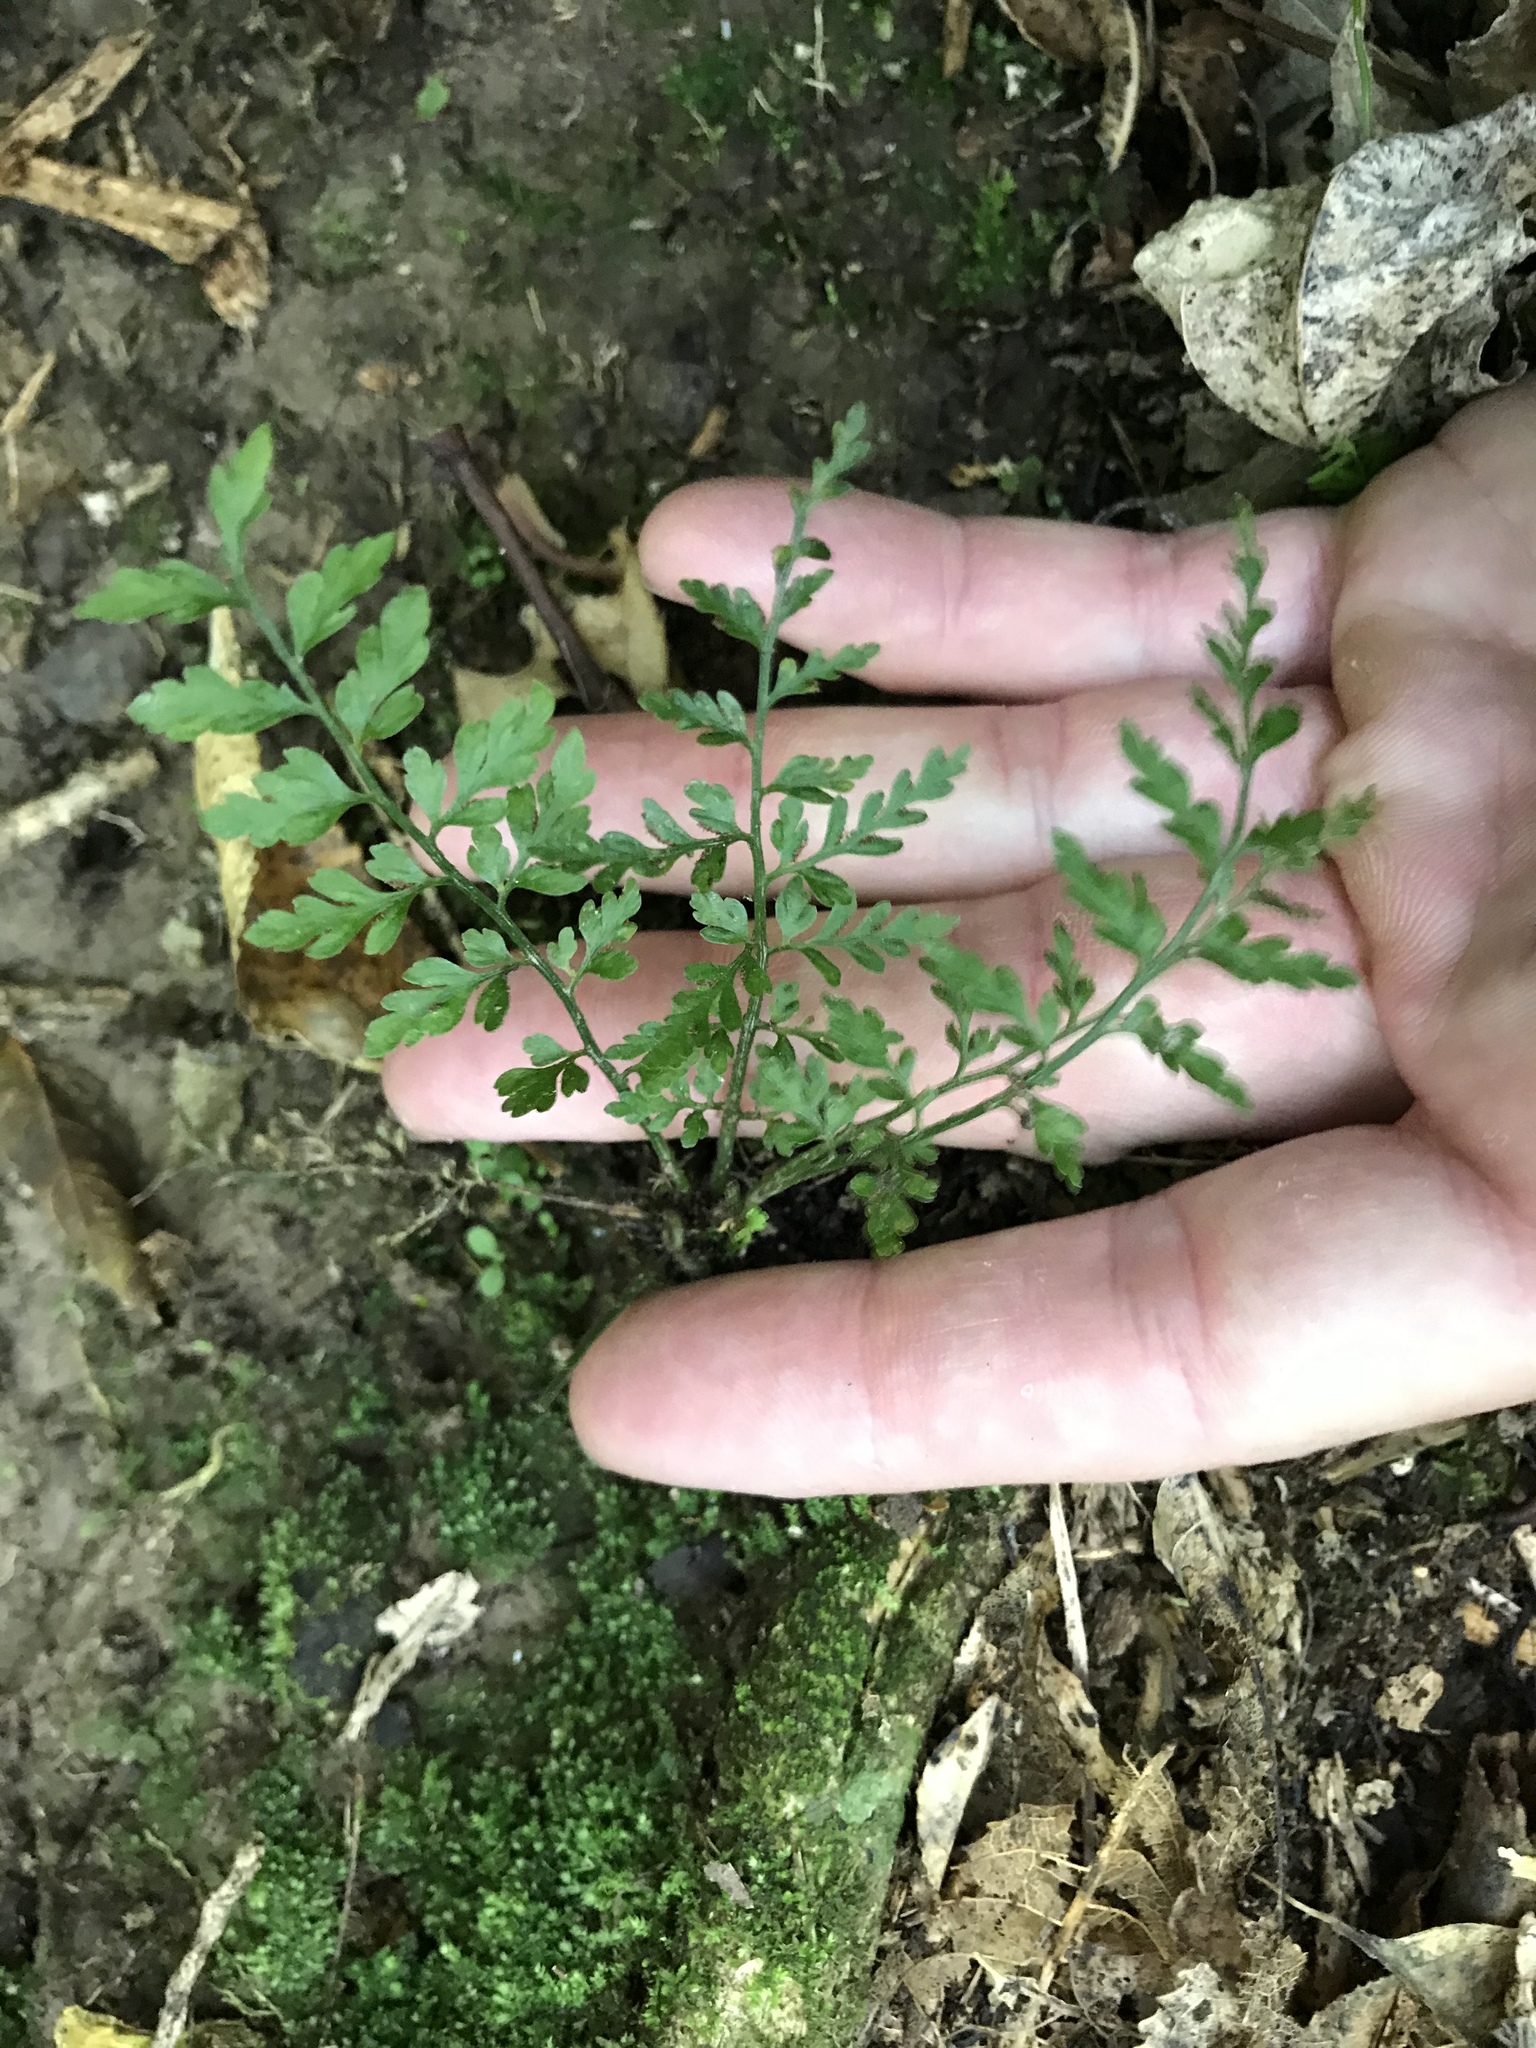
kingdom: Plantae
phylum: Tracheophyta
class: Polypodiopsida
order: Polypodiales
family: Aspleniaceae
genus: Asplenium
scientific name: Asplenium hookerianum
